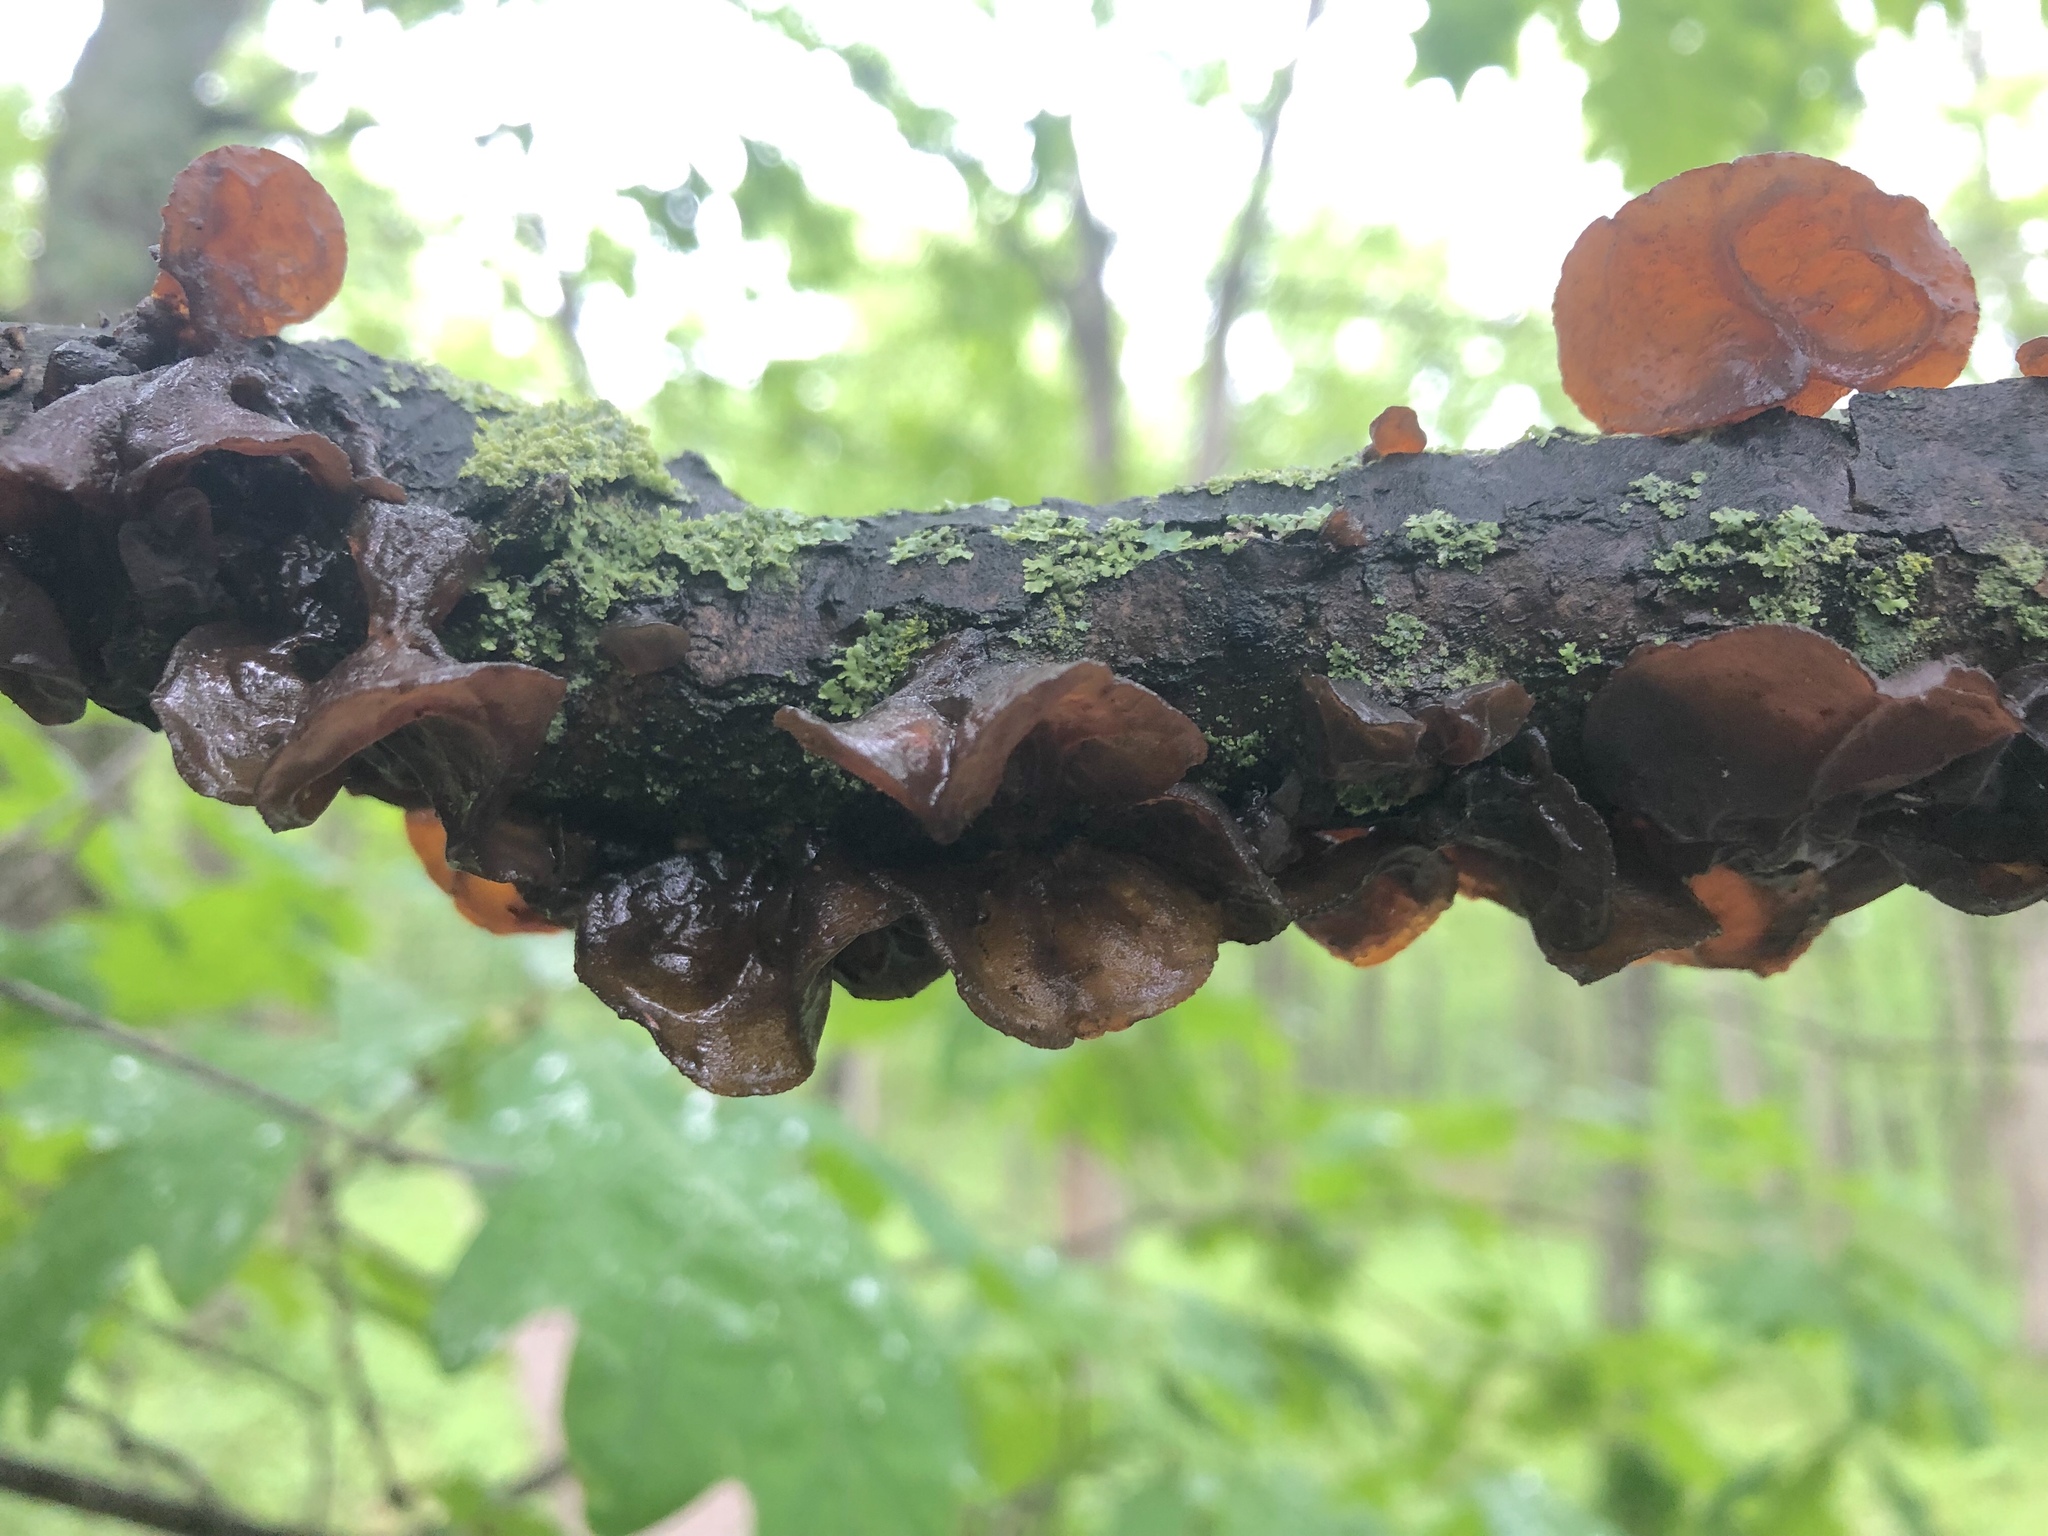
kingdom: Fungi
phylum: Basidiomycota
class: Tremellomycetes
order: Tremellales
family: Tremellaceae
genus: Phaeotremella
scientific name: Phaeotremella foliacea
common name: Leafy brain
